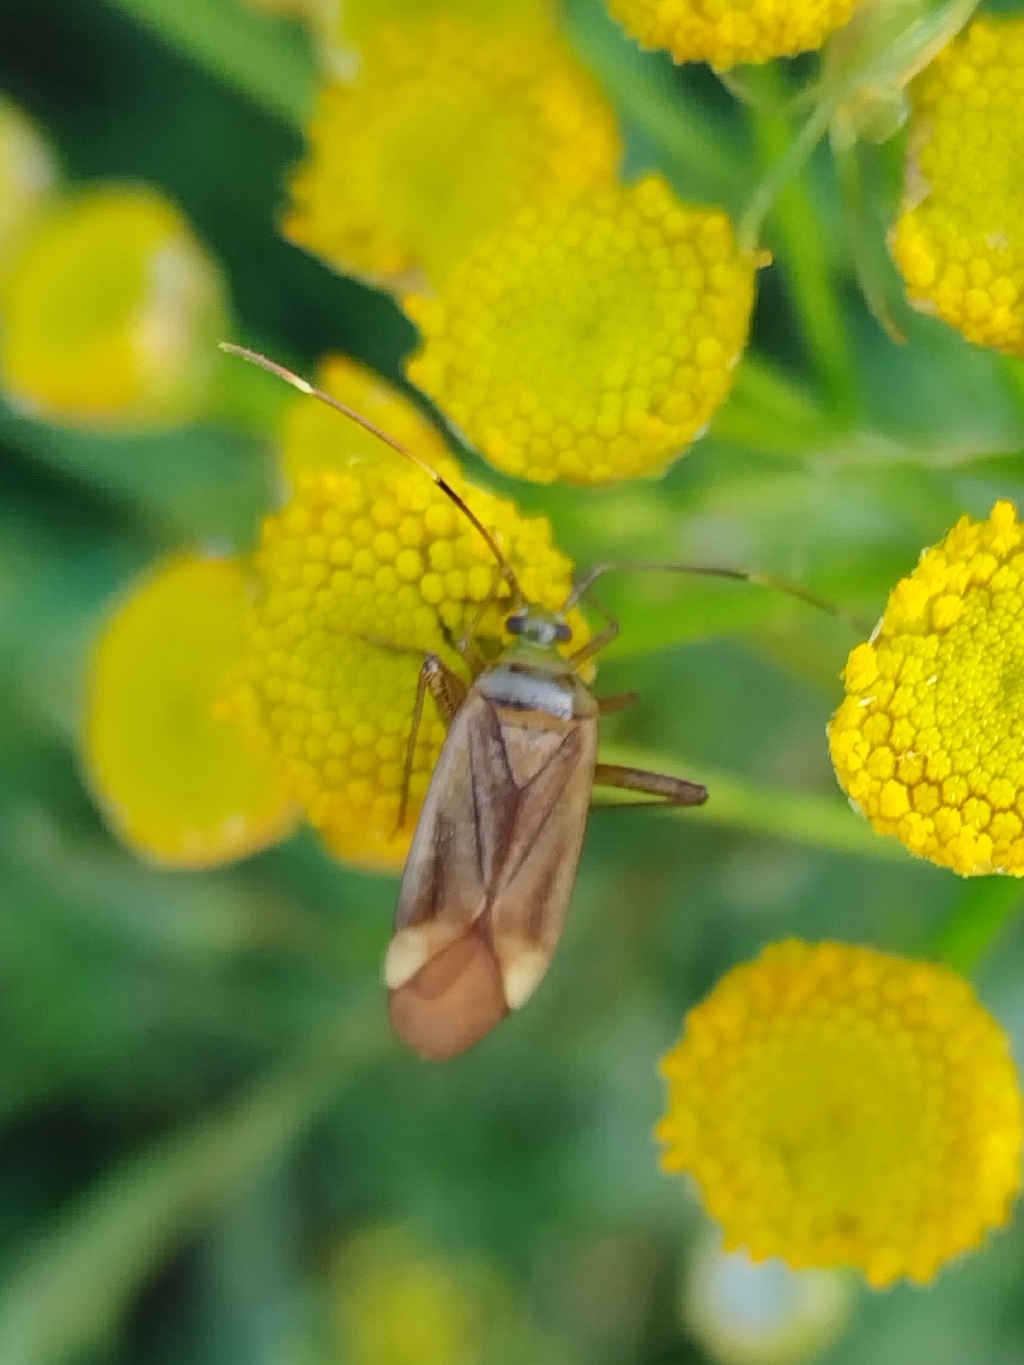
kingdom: Animalia
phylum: Arthropoda
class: Insecta
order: Hemiptera
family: Miridae
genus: Adelphocoris
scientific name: Adelphocoris quadripunctatus
